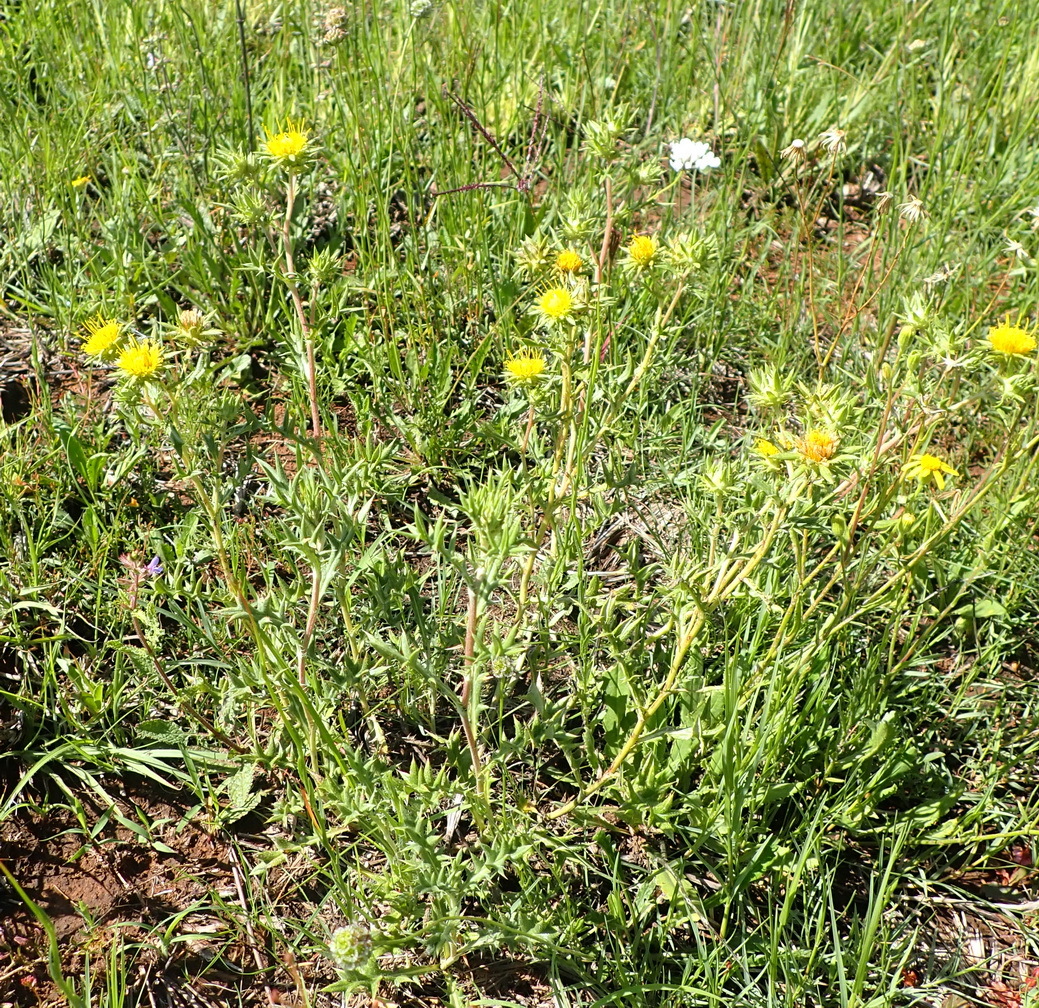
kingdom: Plantae
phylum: Tracheophyta
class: Magnoliopsida
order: Asterales
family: Asteraceae
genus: Berkheya
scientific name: Berkheya pinnatifida
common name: Lobed african thistle
